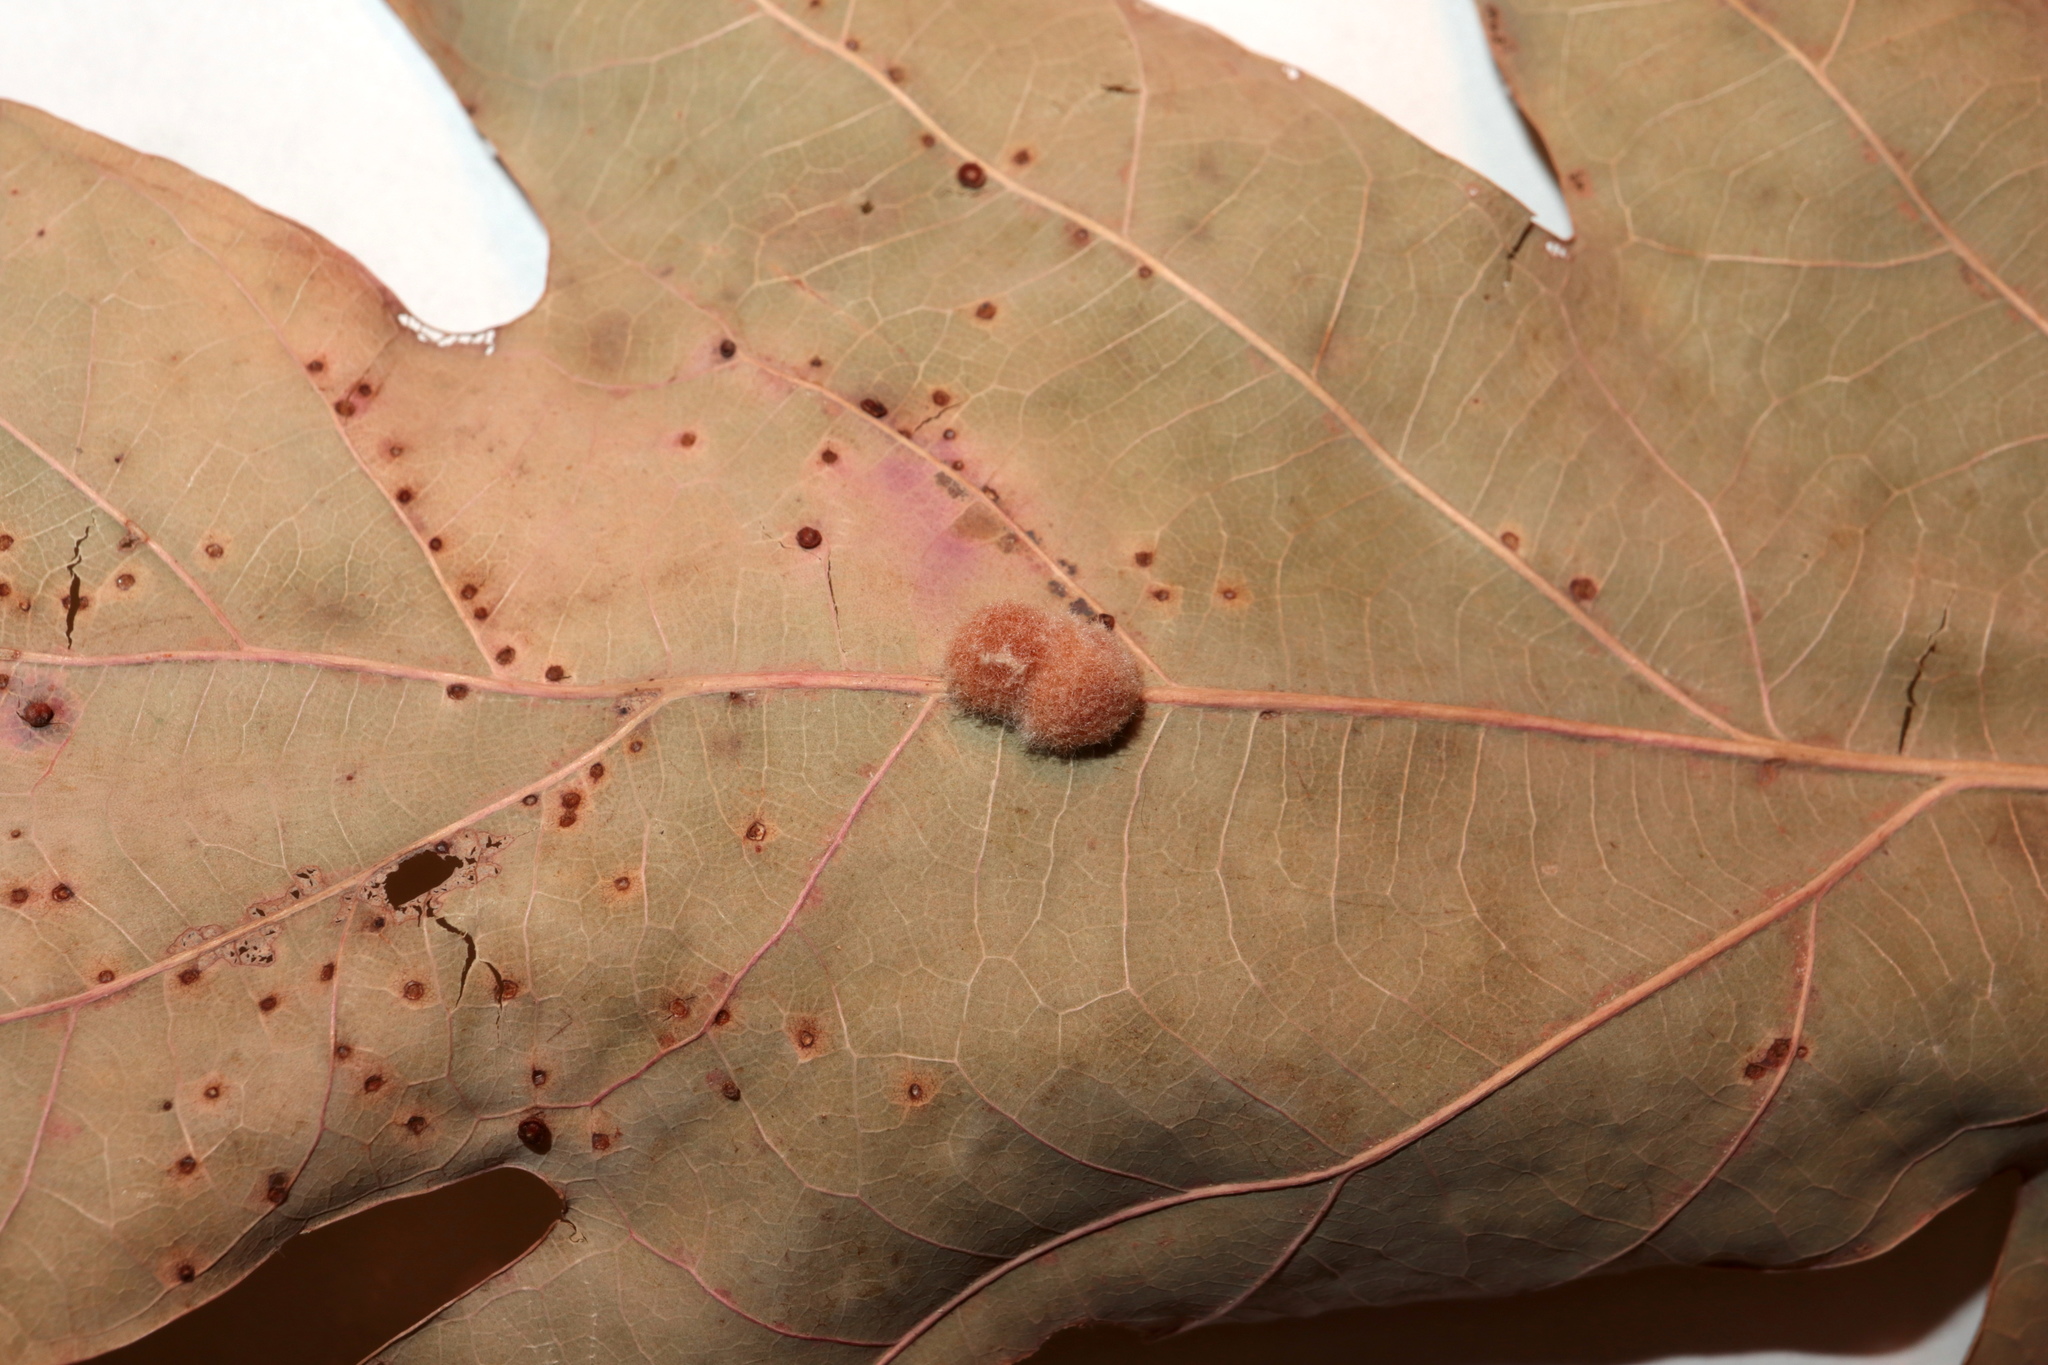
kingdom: Animalia
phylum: Arthropoda
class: Insecta
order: Hymenoptera
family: Cynipidae
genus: Andricus
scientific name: Andricus quercusflocci
